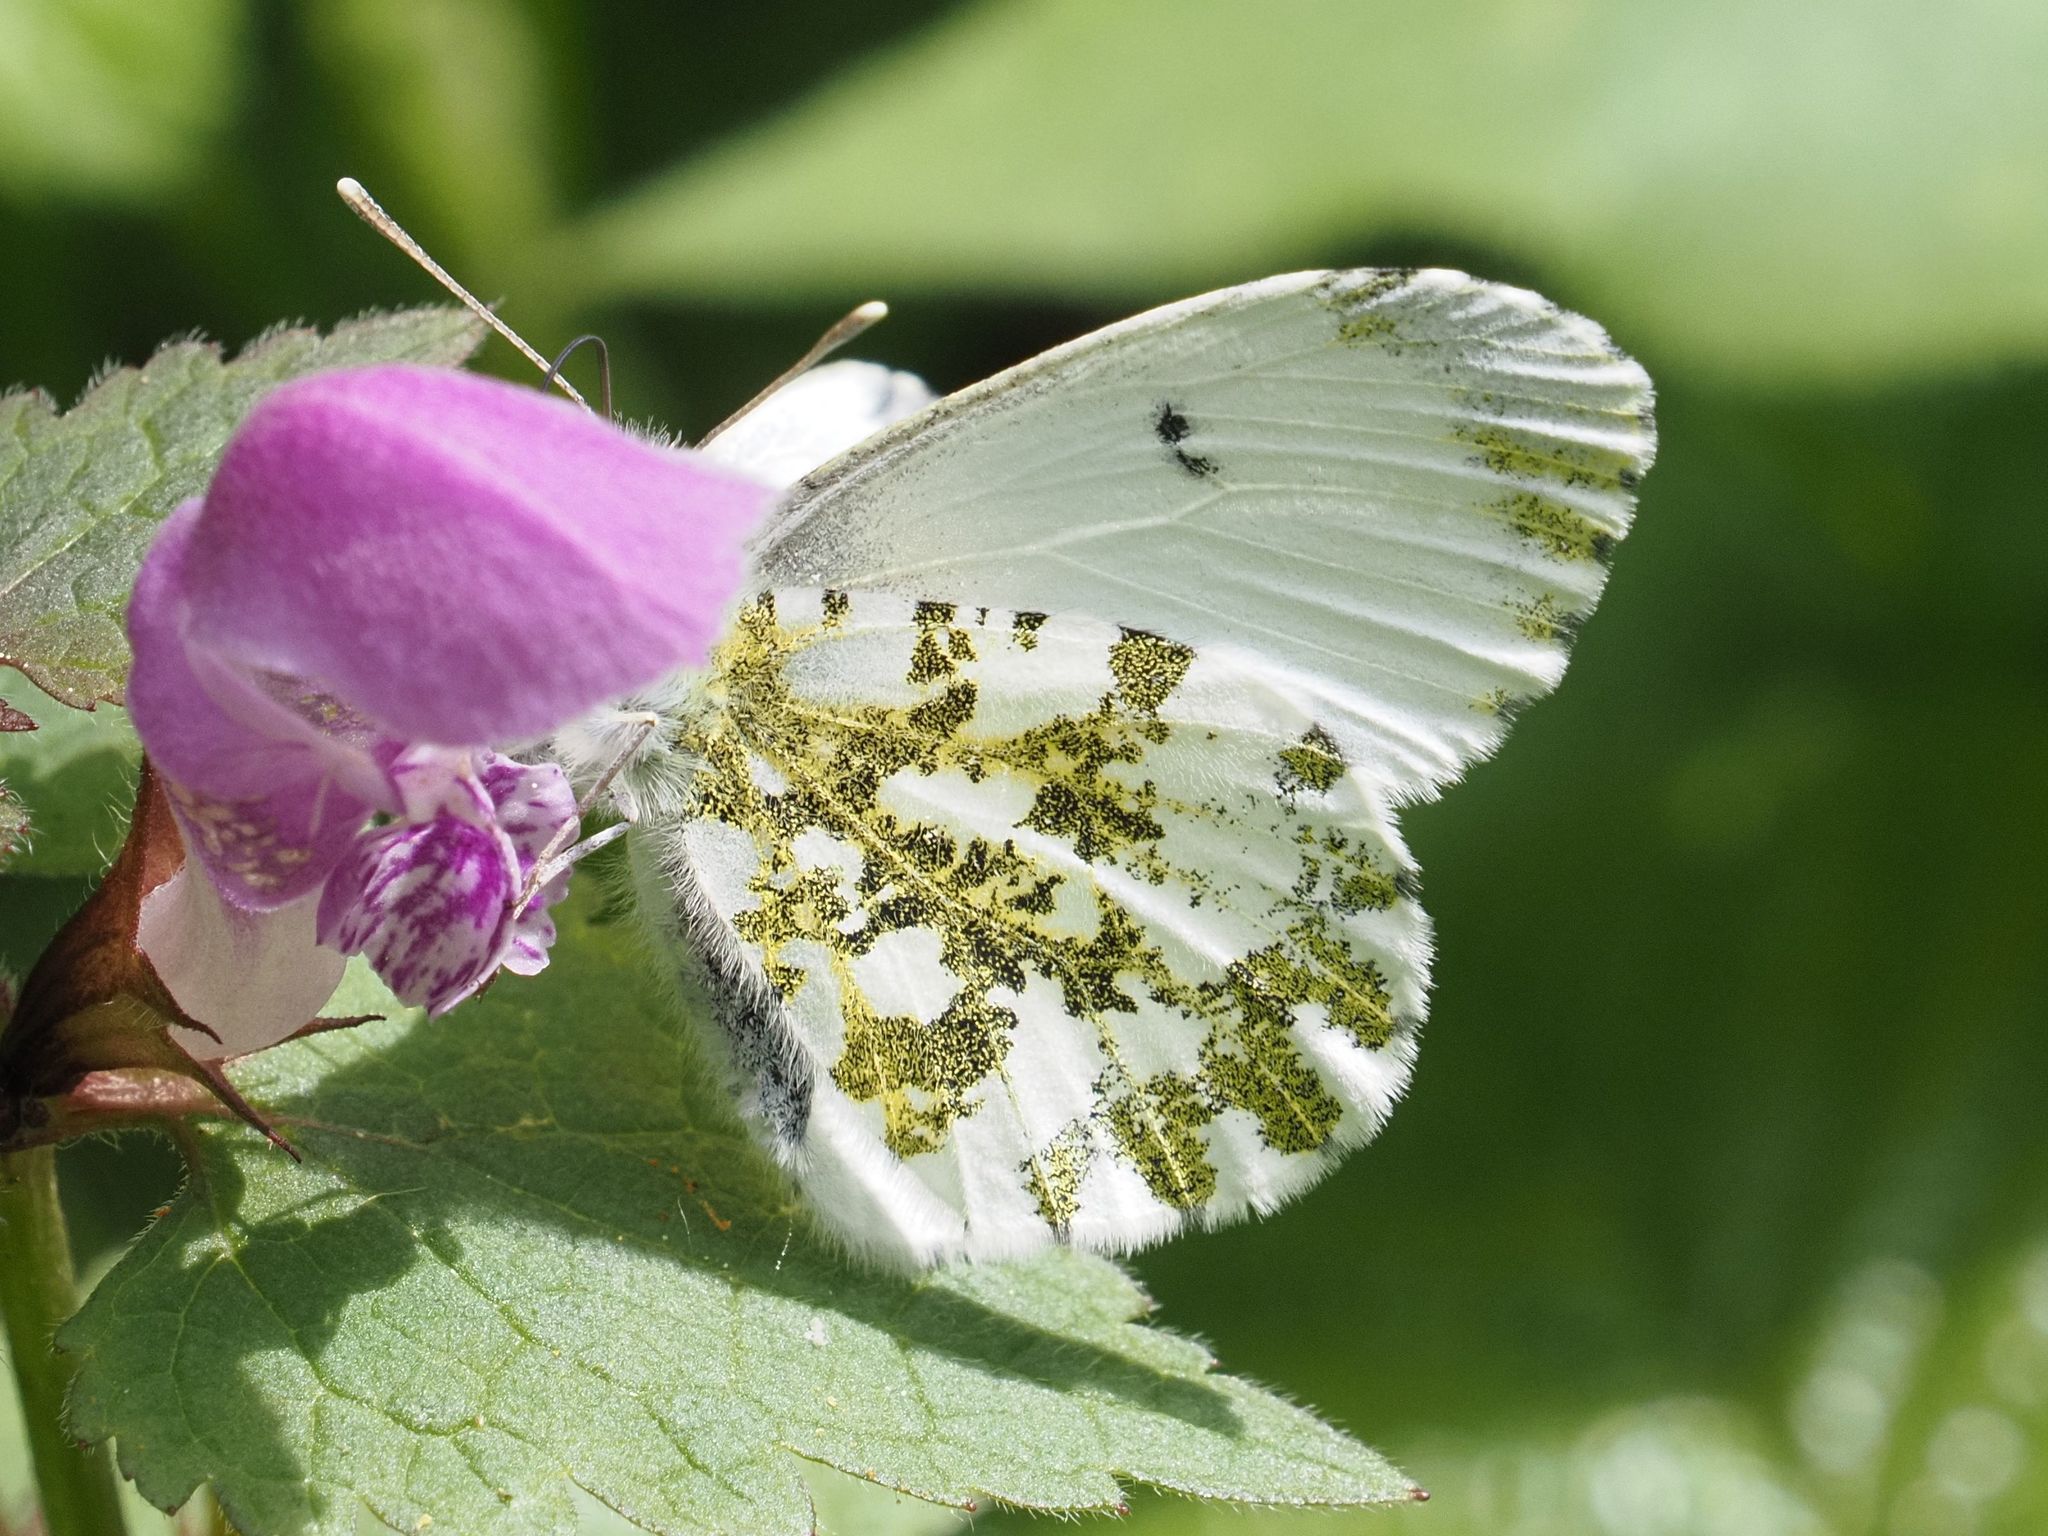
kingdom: Animalia
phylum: Arthropoda
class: Insecta
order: Lepidoptera
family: Pieridae
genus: Anthocharis
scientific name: Anthocharis cardamines
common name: Orange-tip
